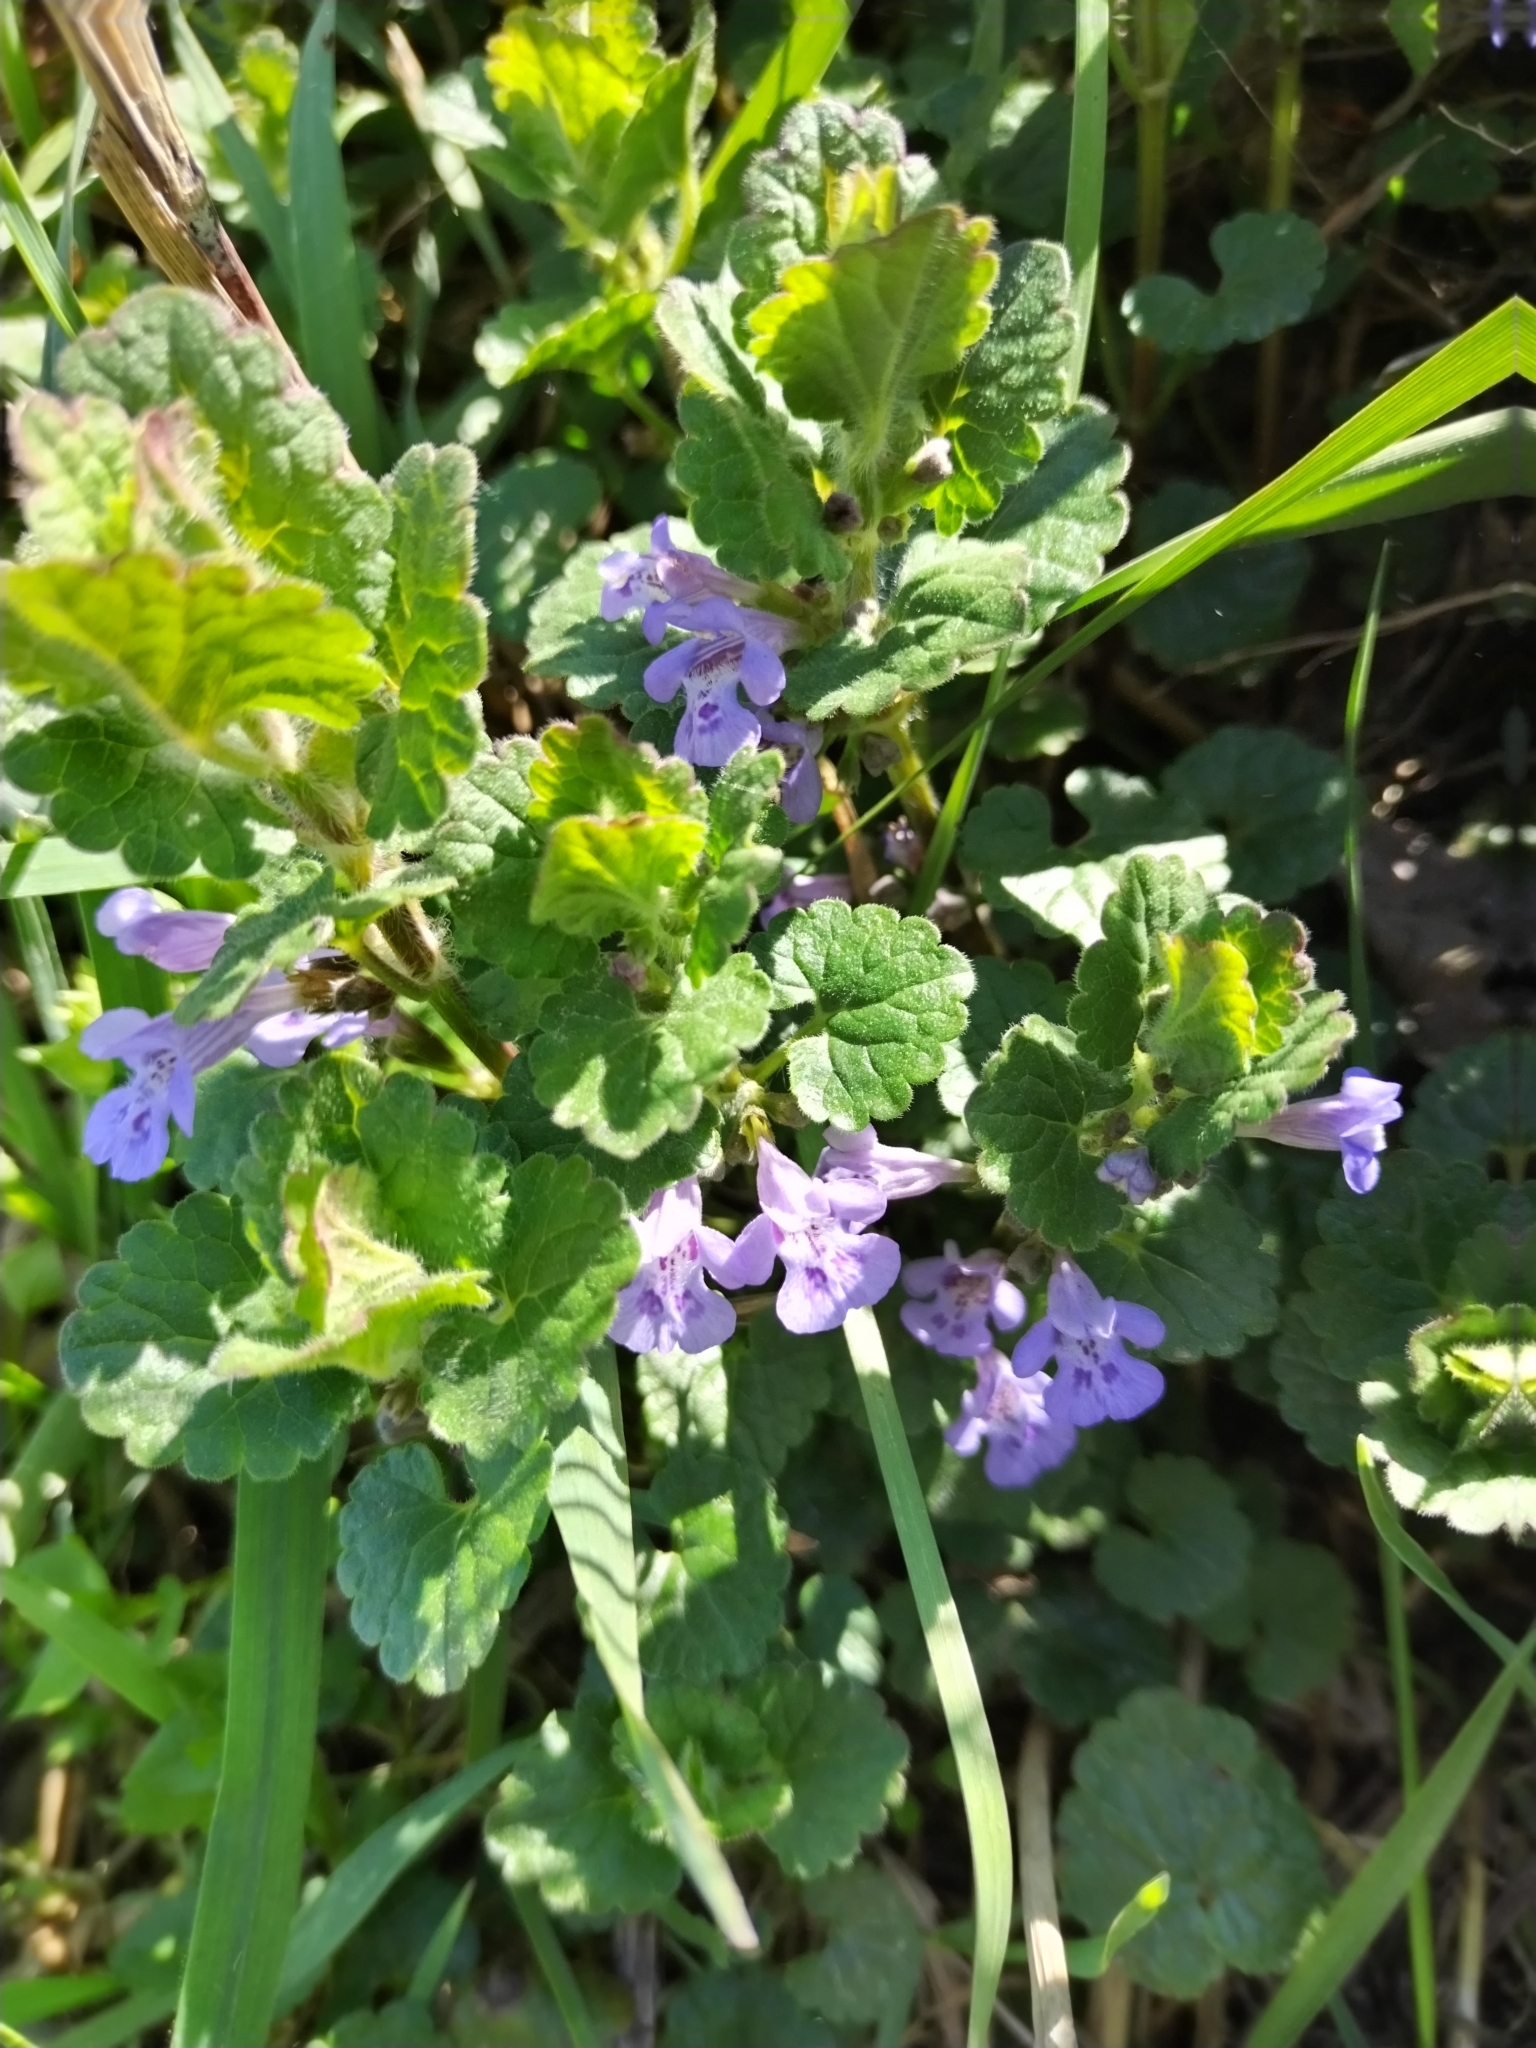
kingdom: Plantae
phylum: Tracheophyta
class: Magnoliopsida
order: Lamiales
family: Lamiaceae
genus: Glechoma
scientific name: Glechoma hederacea
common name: Ground ivy
